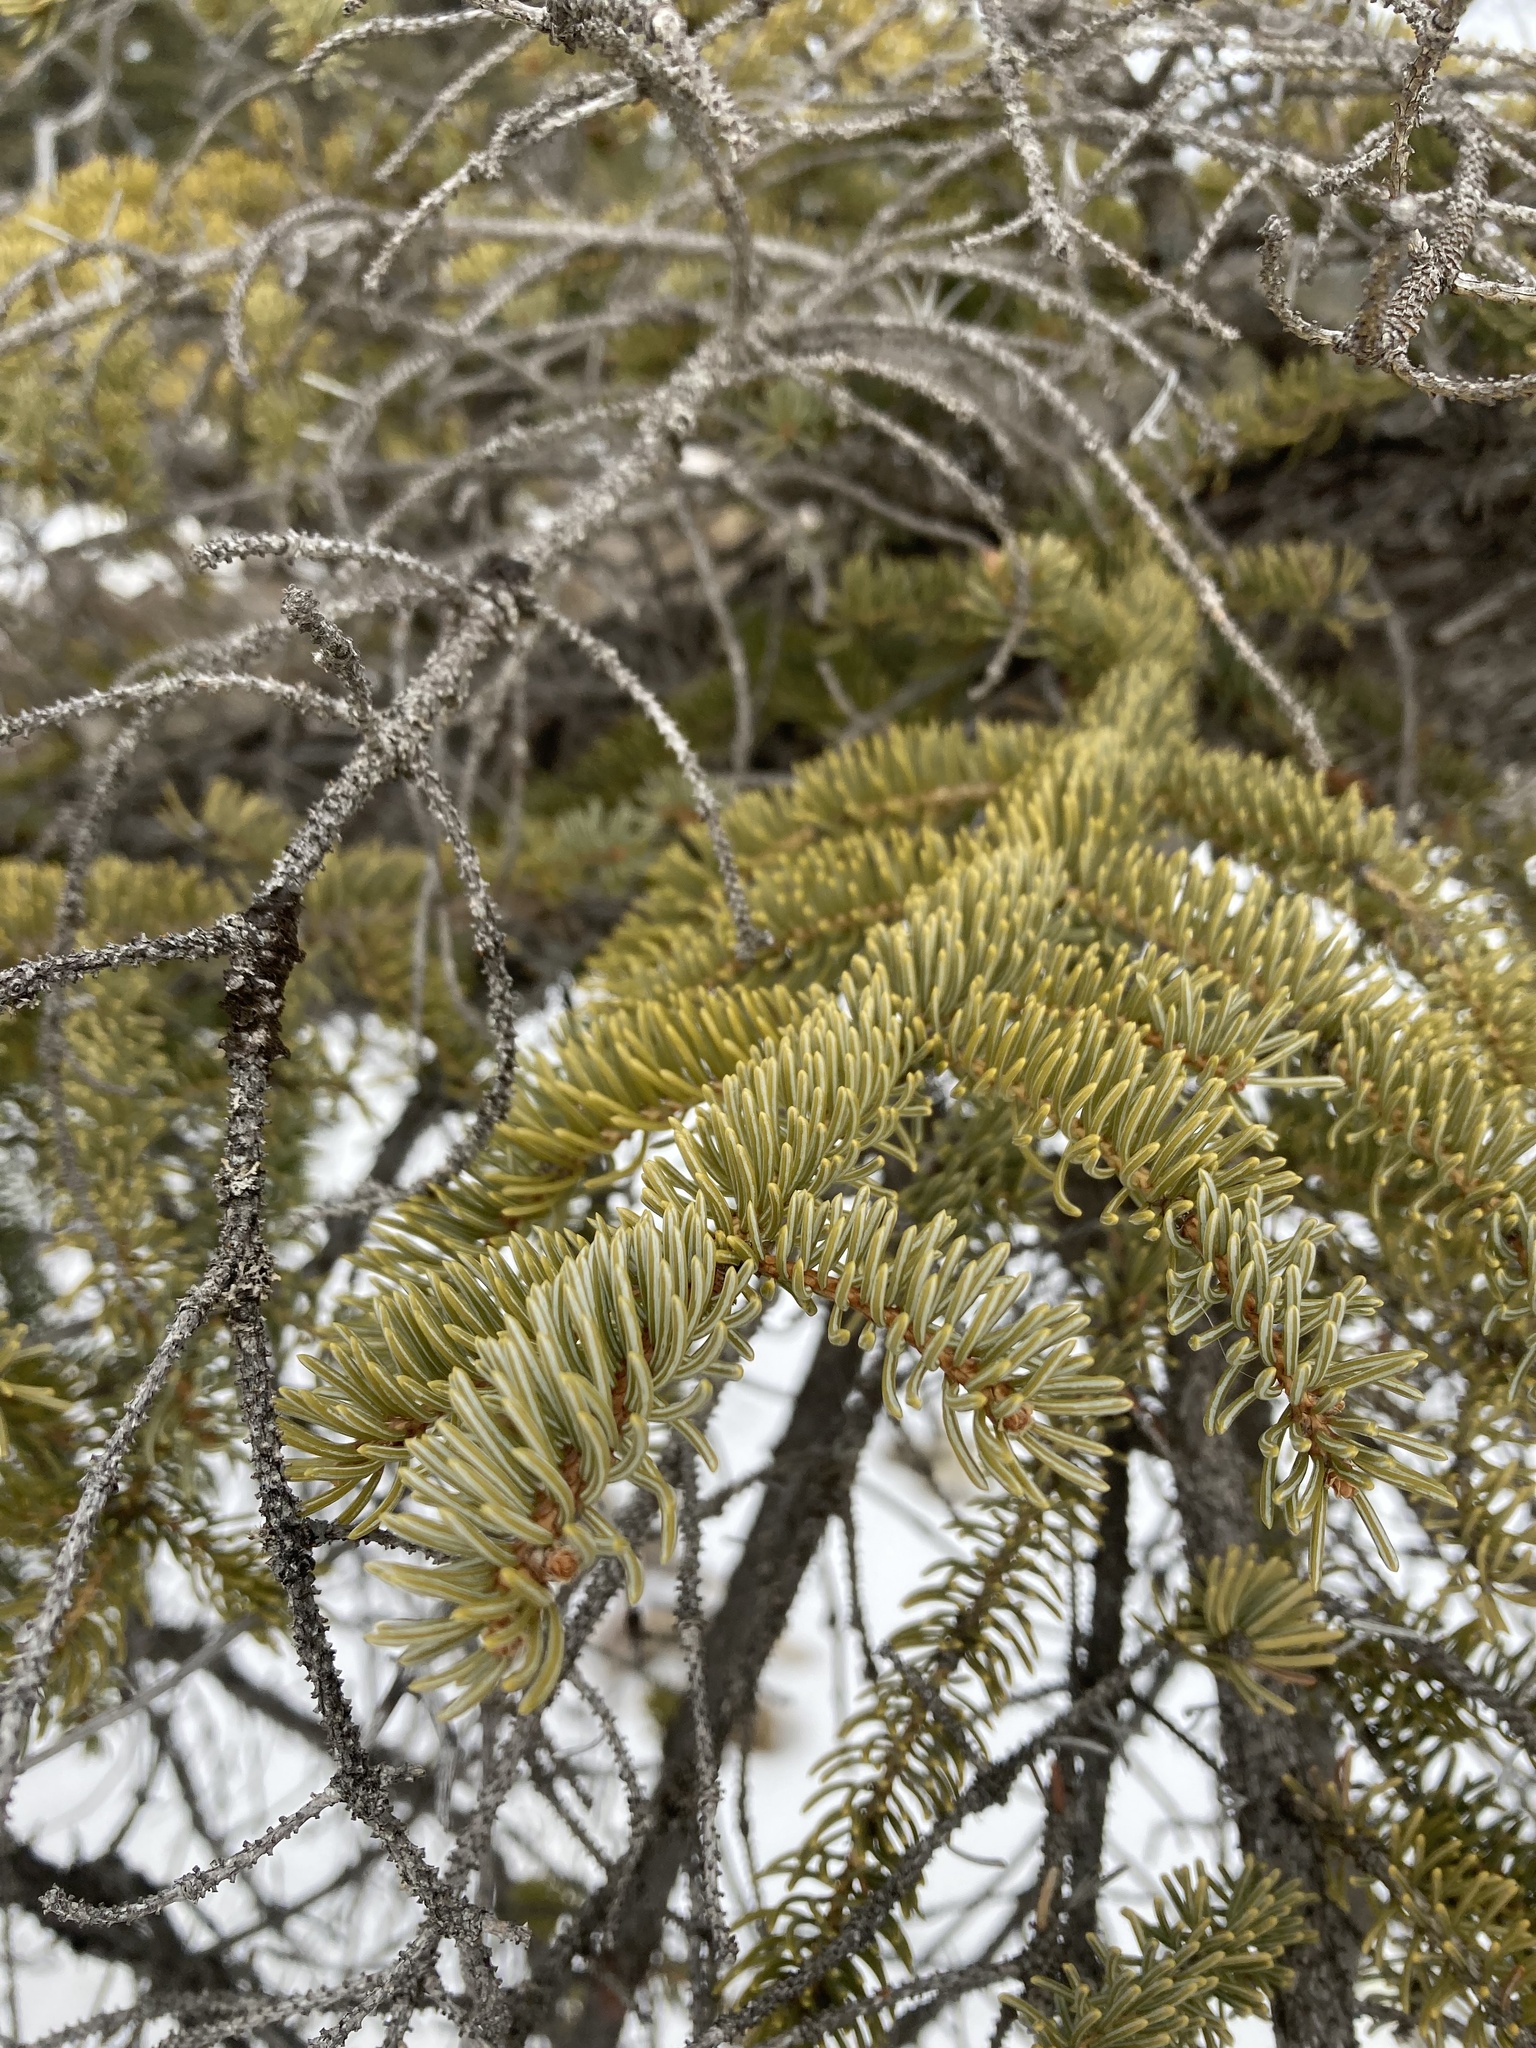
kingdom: Plantae
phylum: Tracheophyta
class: Pinopsida
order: Pinales
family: Pinaceae
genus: Picea
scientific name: Picea mariana
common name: Black spruce
